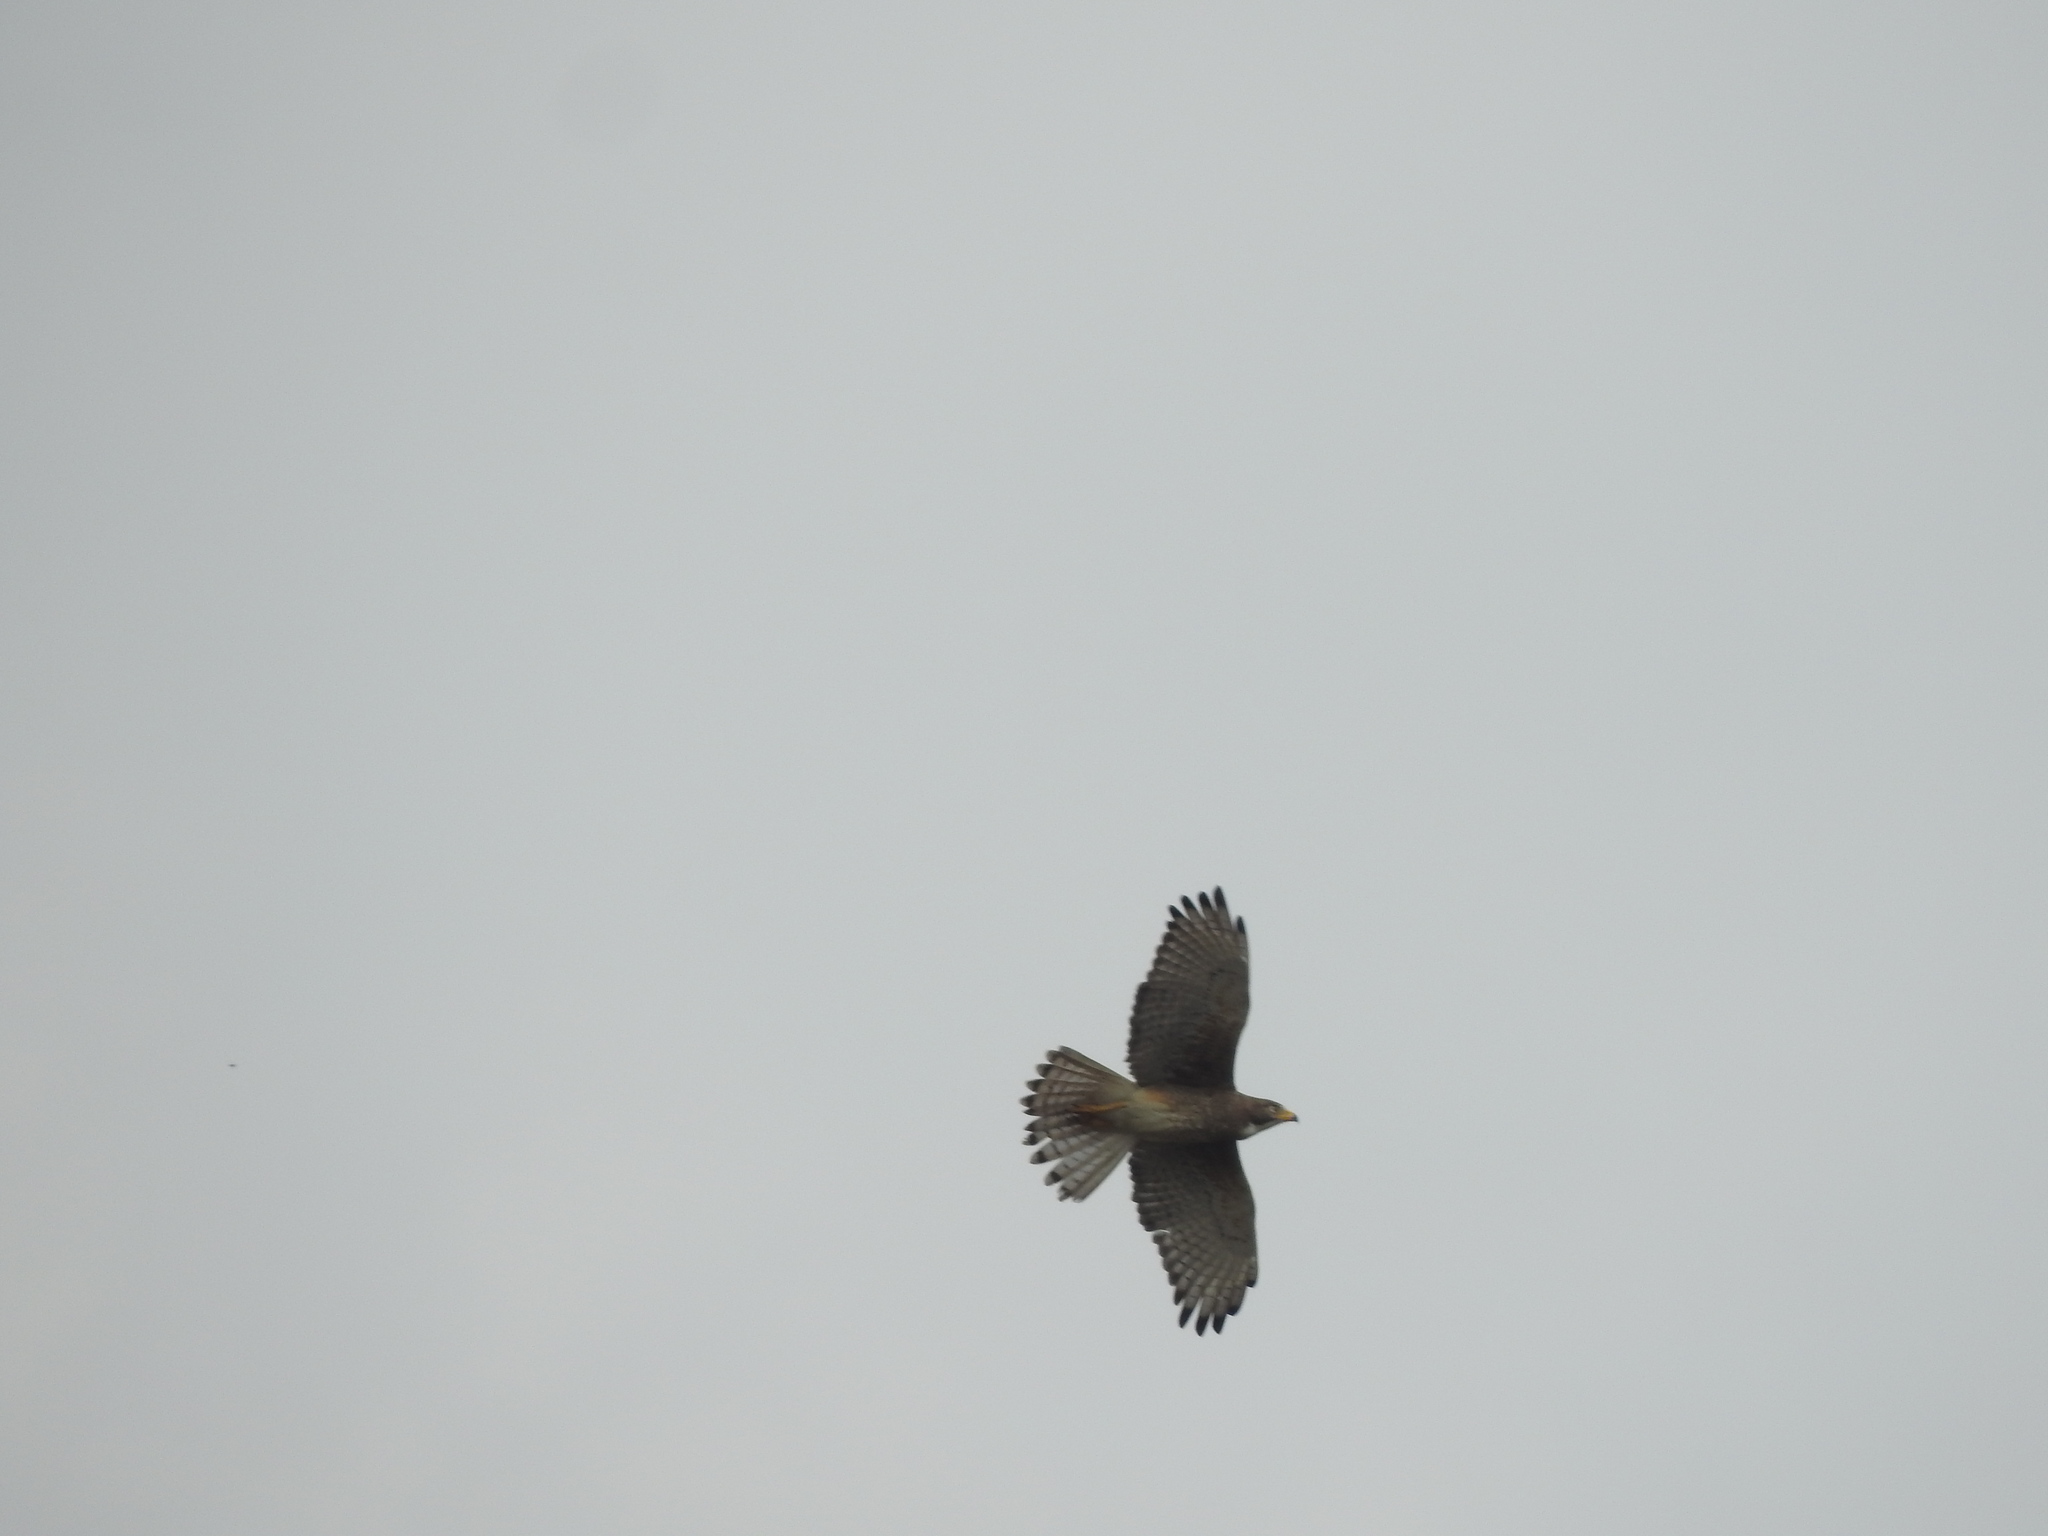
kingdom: Animalia
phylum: Chordata
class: Aves
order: Accipitriformes
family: Accipitridae
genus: Butastur
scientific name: Butastur teesa
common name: White-eyed buzzard
